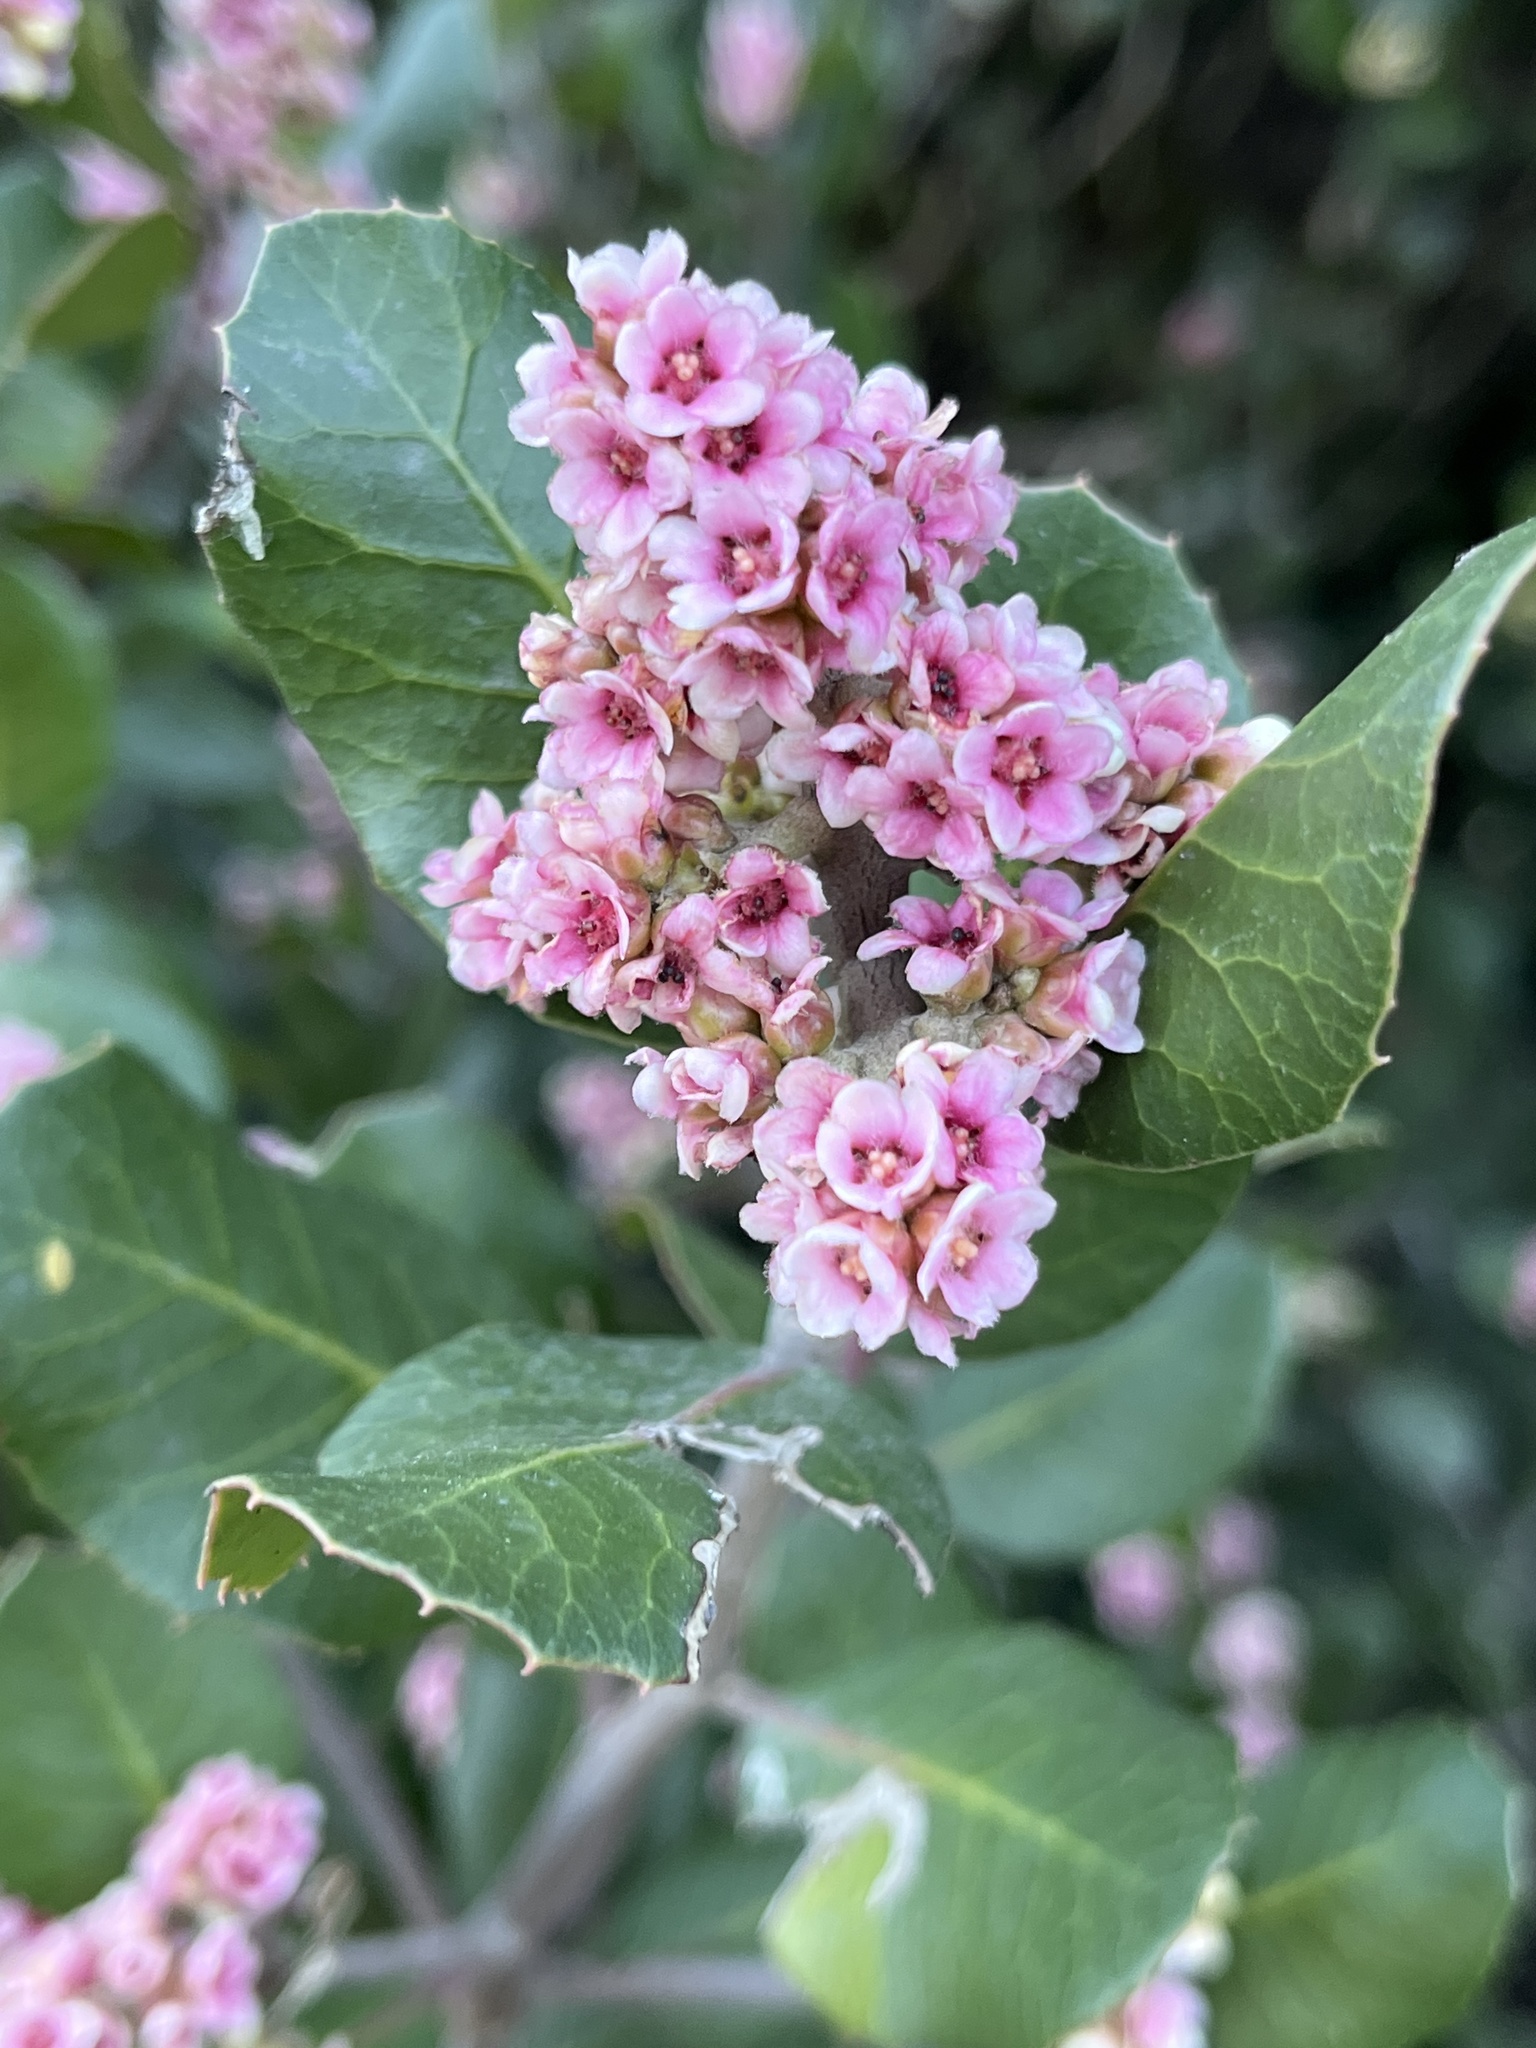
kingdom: Plantae
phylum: Tracheophyta
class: Magnoliopsida
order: Sapindales
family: Anacardiaceae
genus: Rhus
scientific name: Rhus integrifolia
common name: Lemonade sumac
